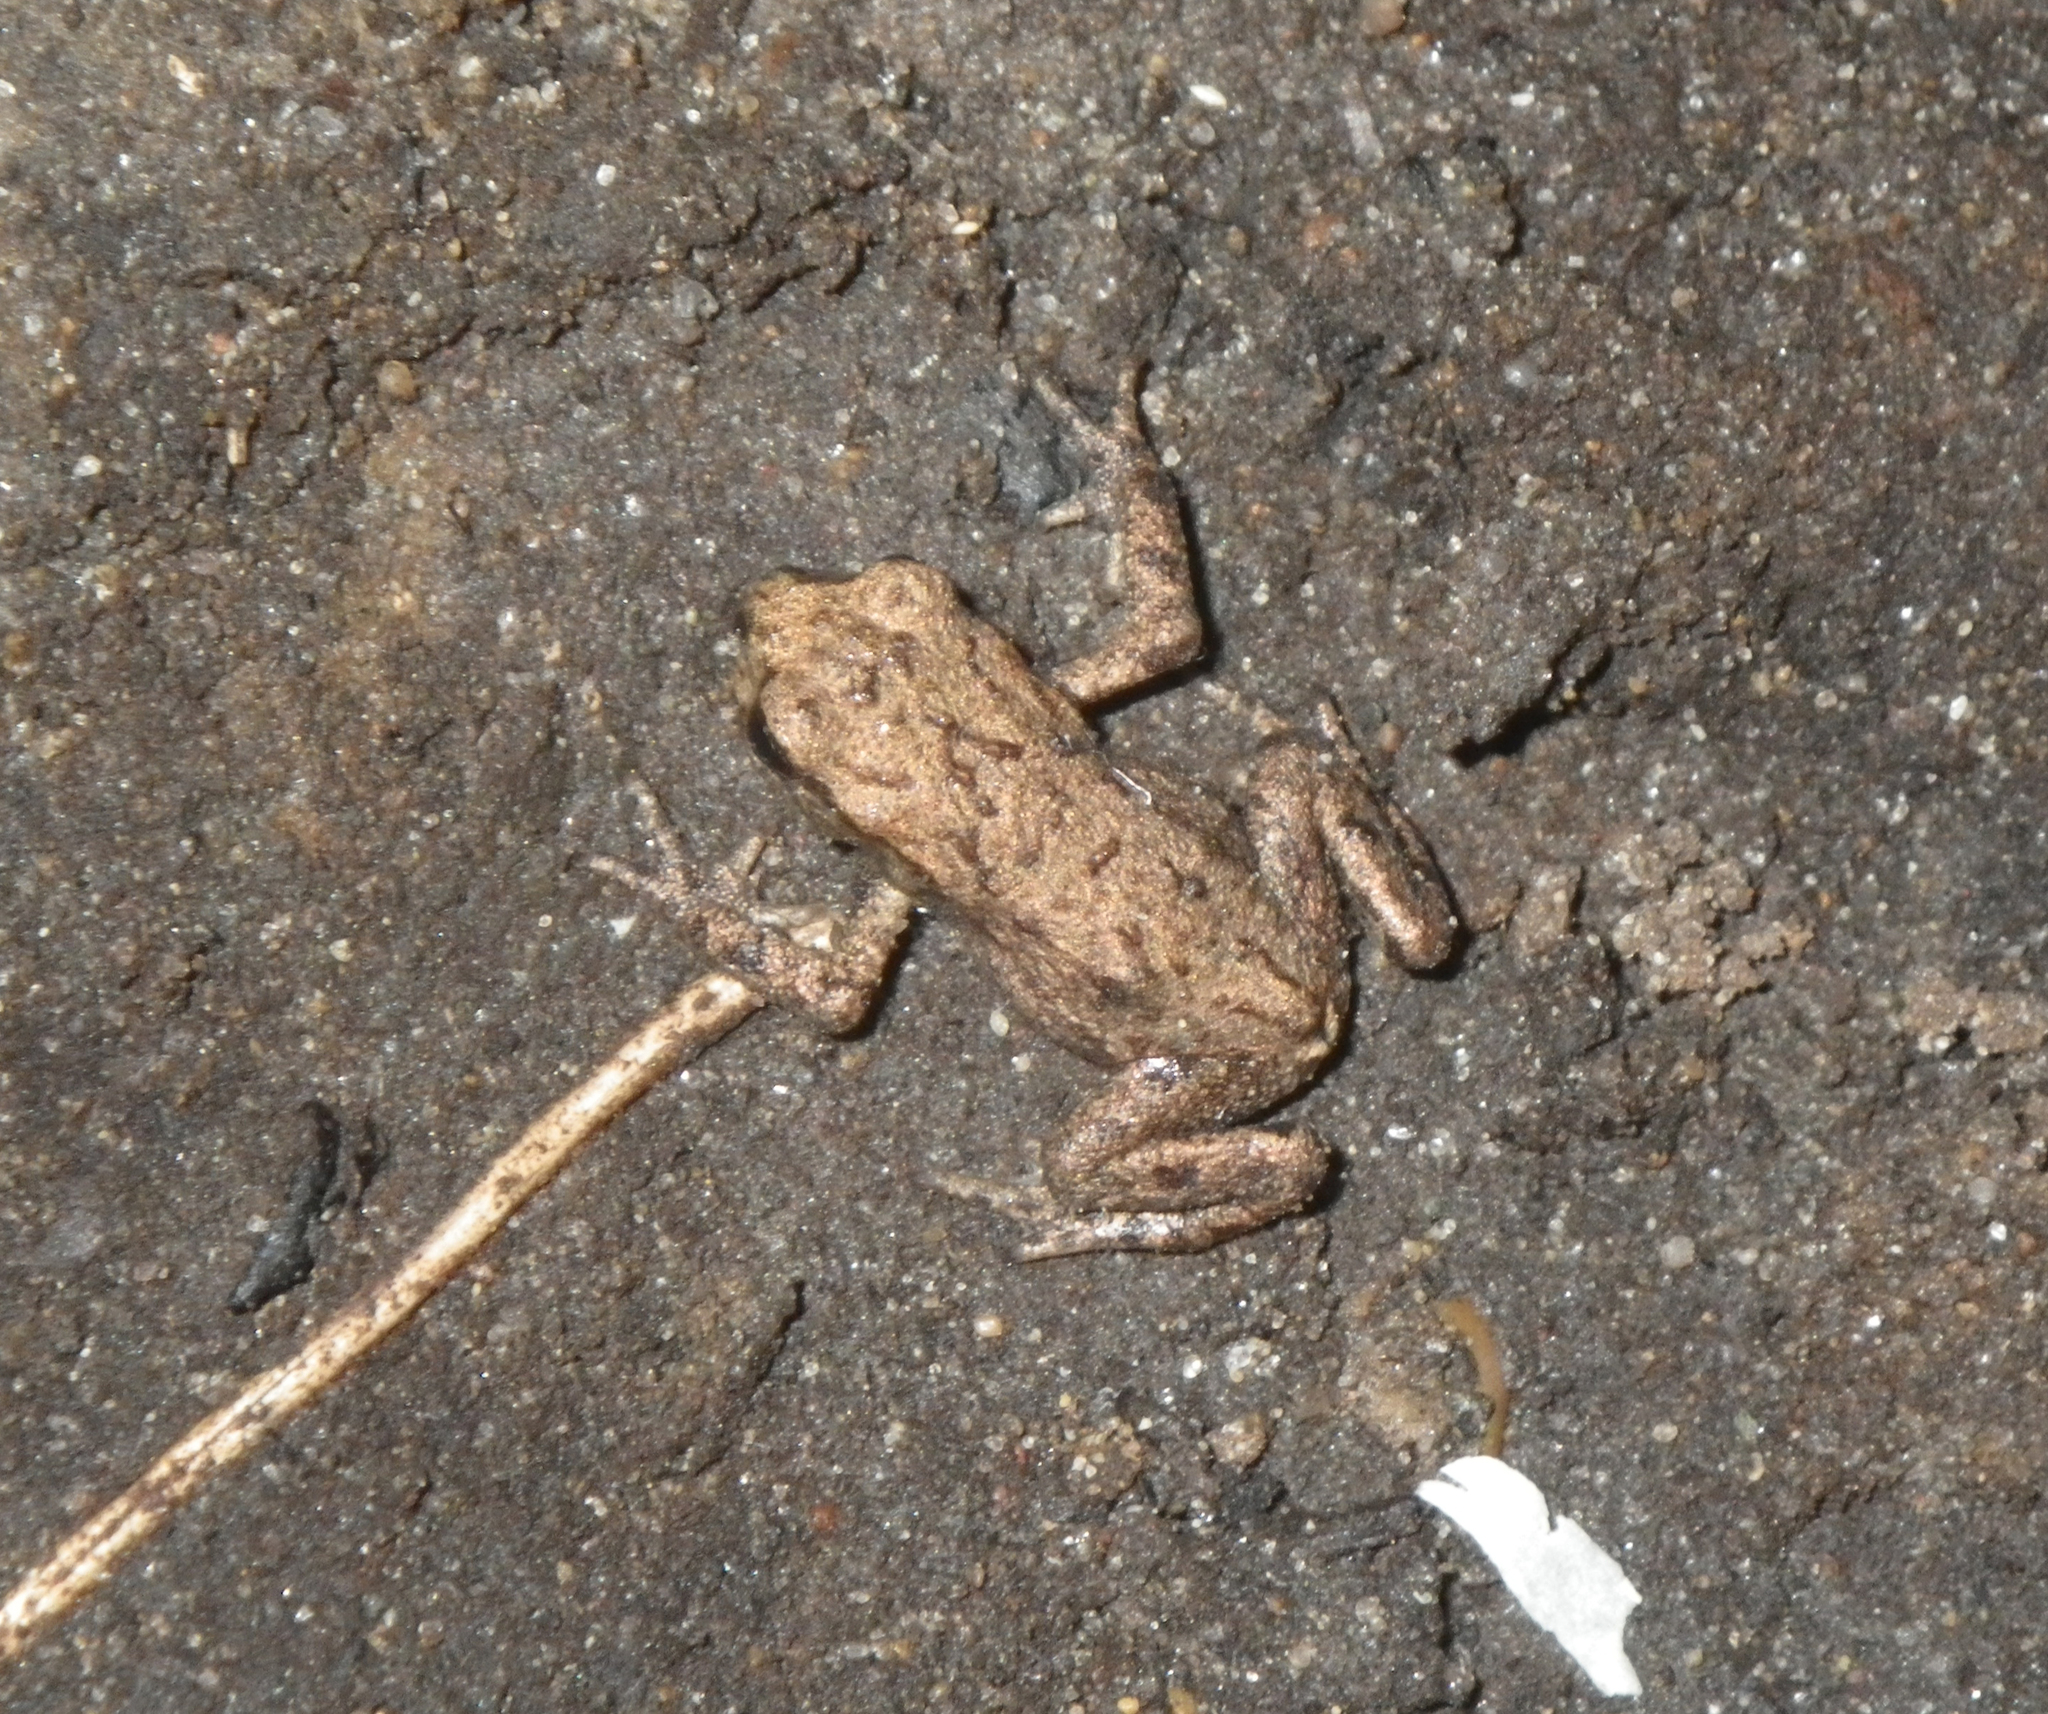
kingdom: Animalia
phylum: Chordata
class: Amphibia
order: Anura
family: Bufonidae
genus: Bufo
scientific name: Bufo bufo
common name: Common toad
